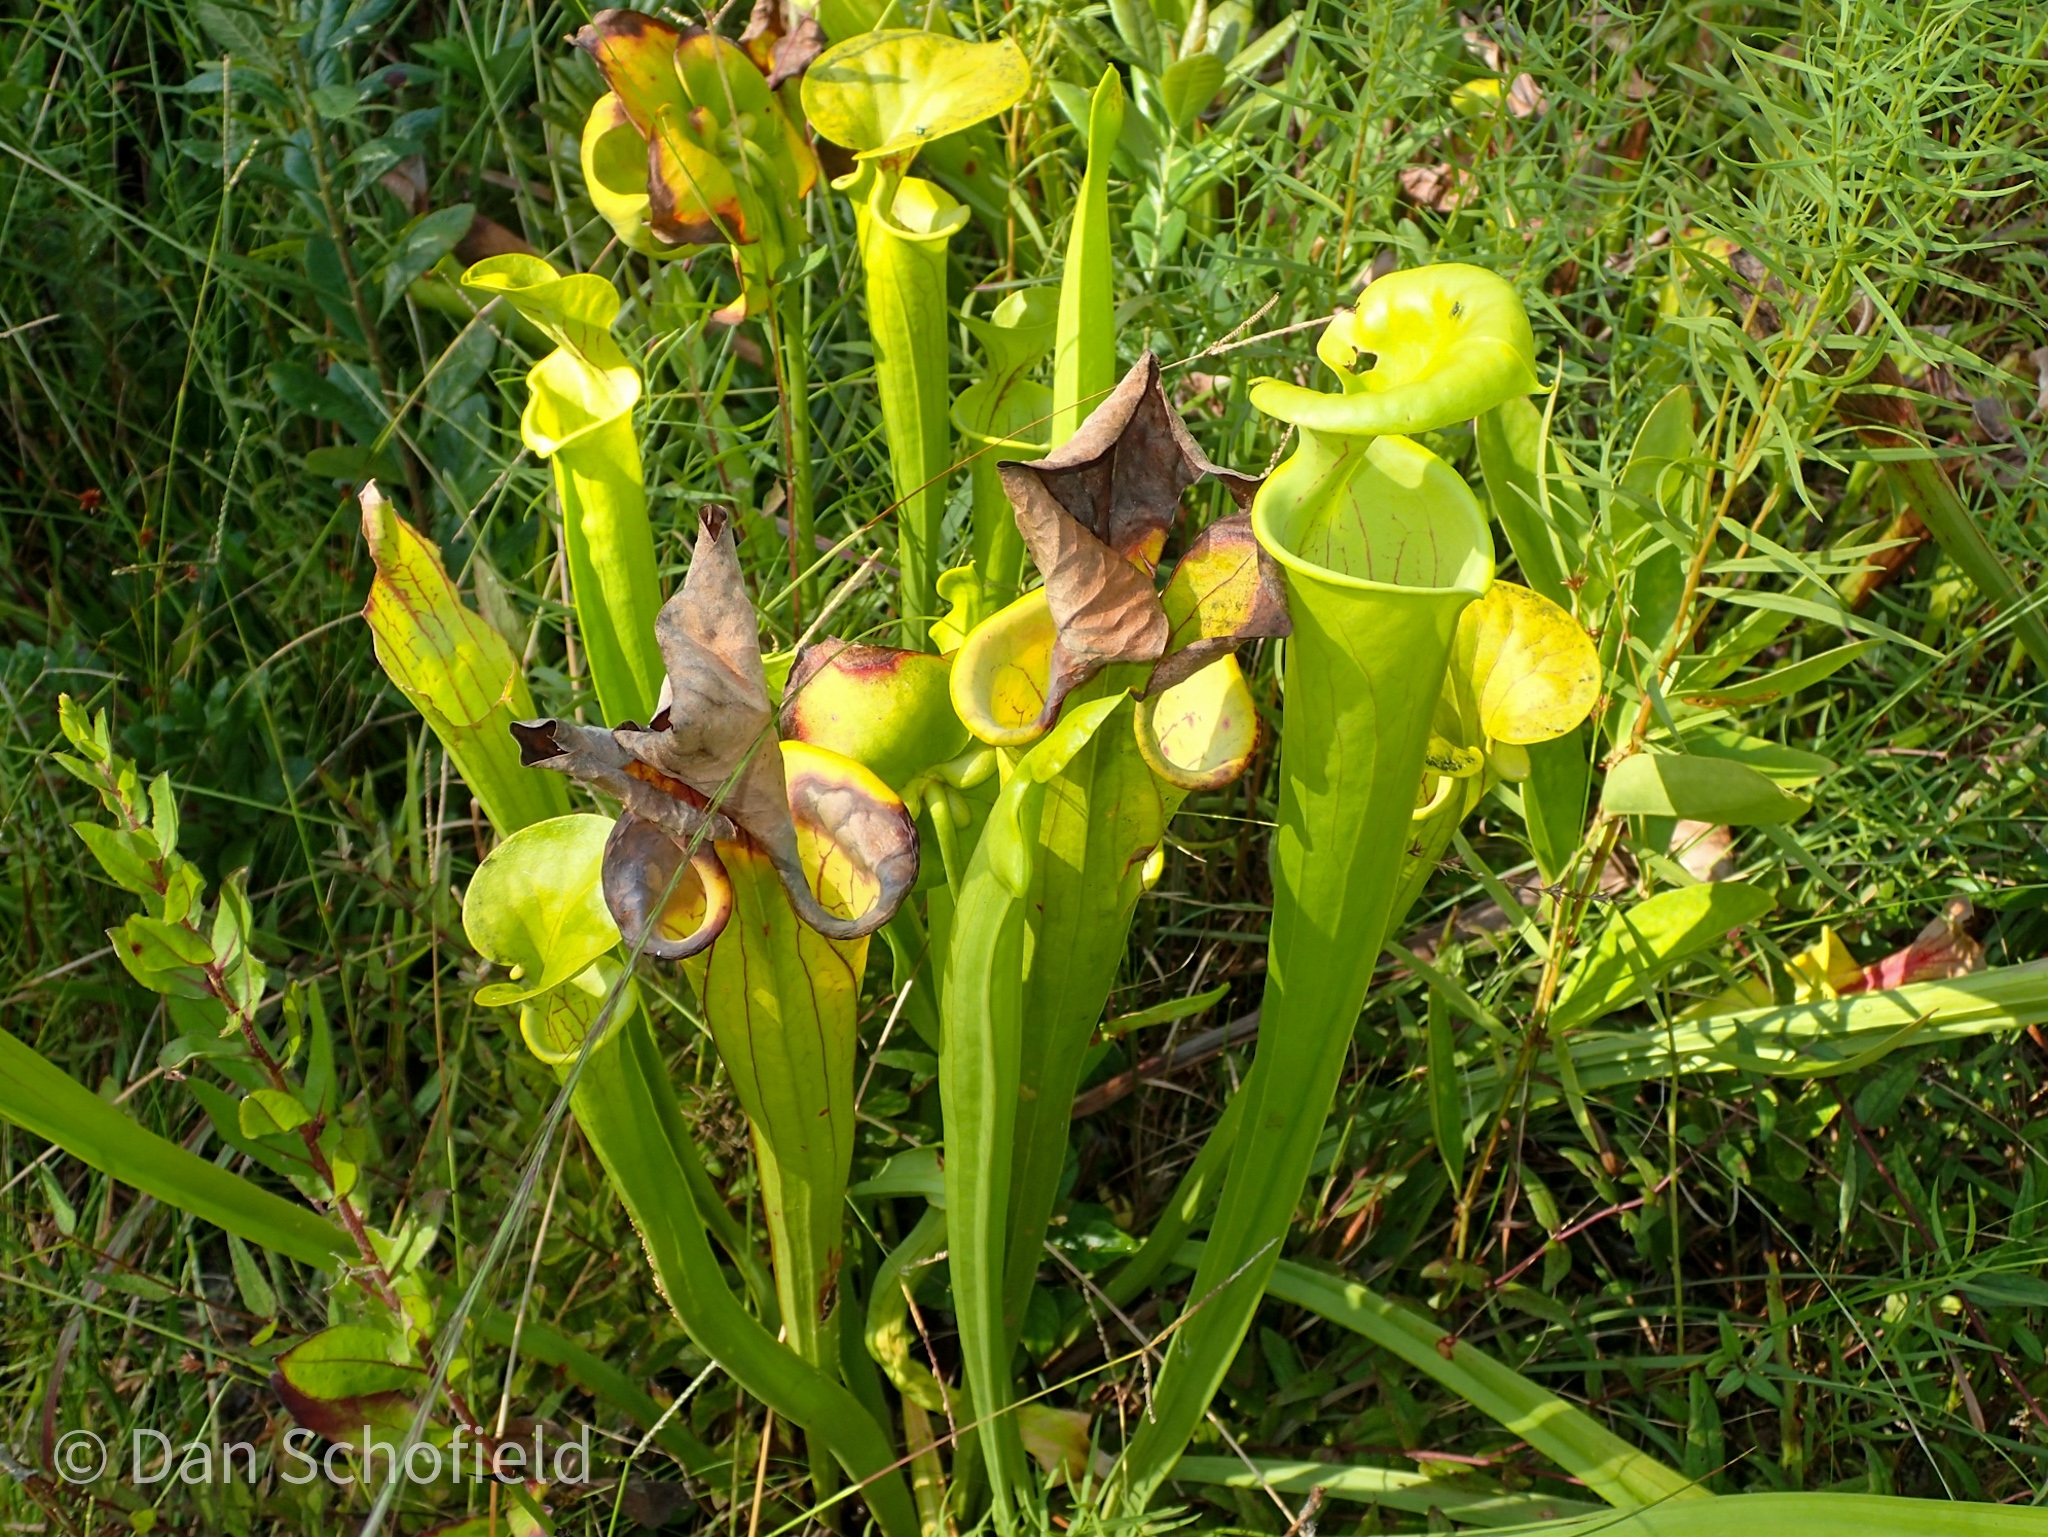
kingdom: Plantae
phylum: Tracheophyta
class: Magnoliopsida
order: Ericales
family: Sarraceniaceae
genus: Sarracenia
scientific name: Sarracenia flava
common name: Trumpets
